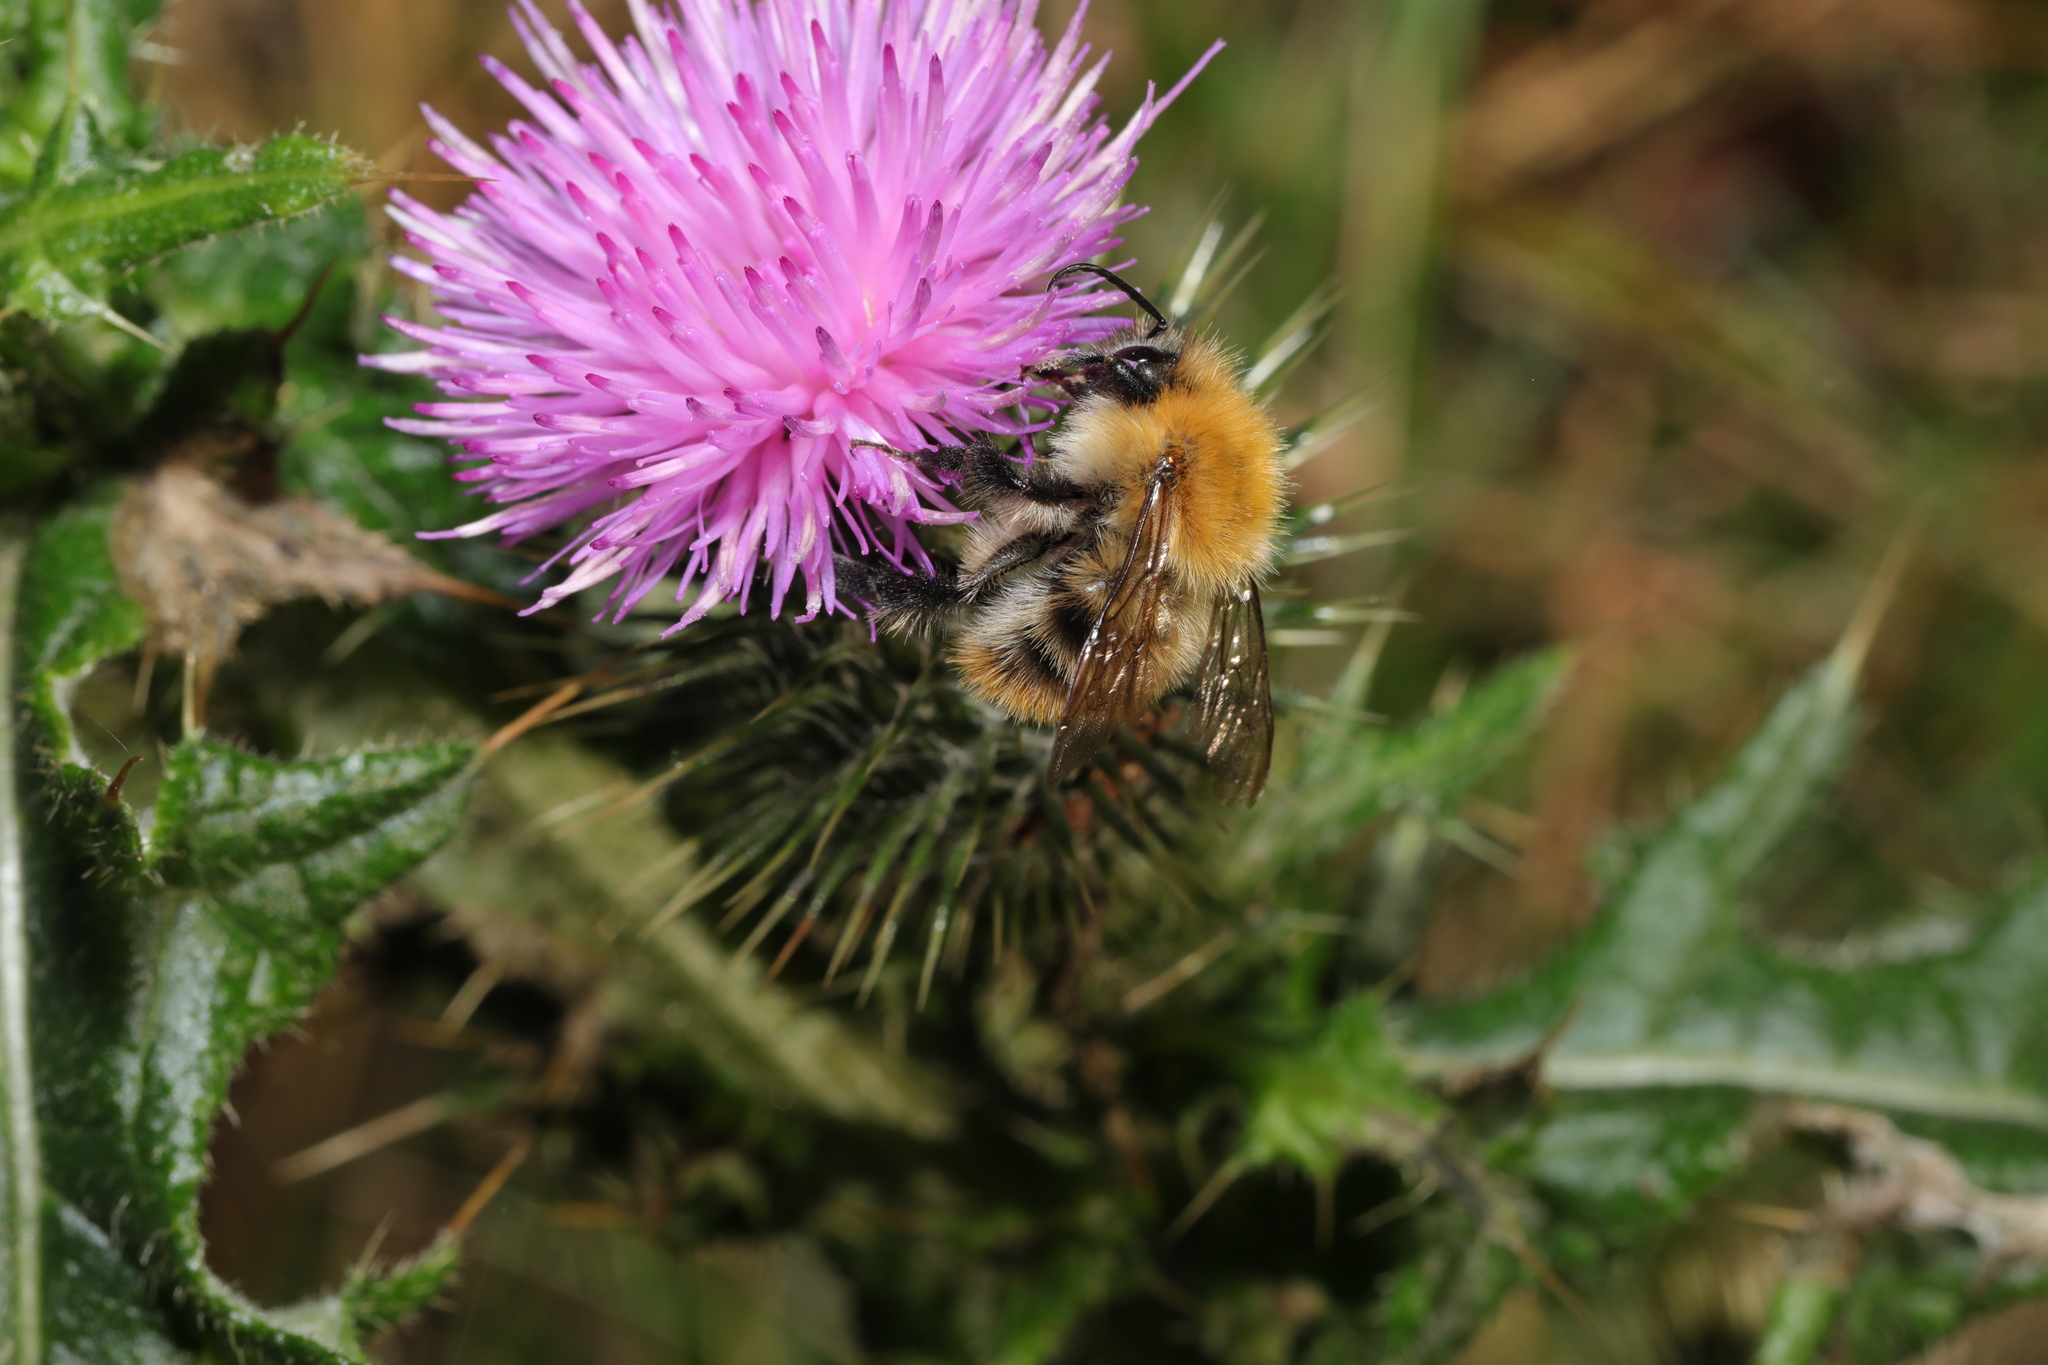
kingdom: Animalia
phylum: Arthropoda
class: Insecta
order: Hymenoptera
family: Apidae
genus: Bombus
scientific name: Bombus pascuorum
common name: Common carder bee
